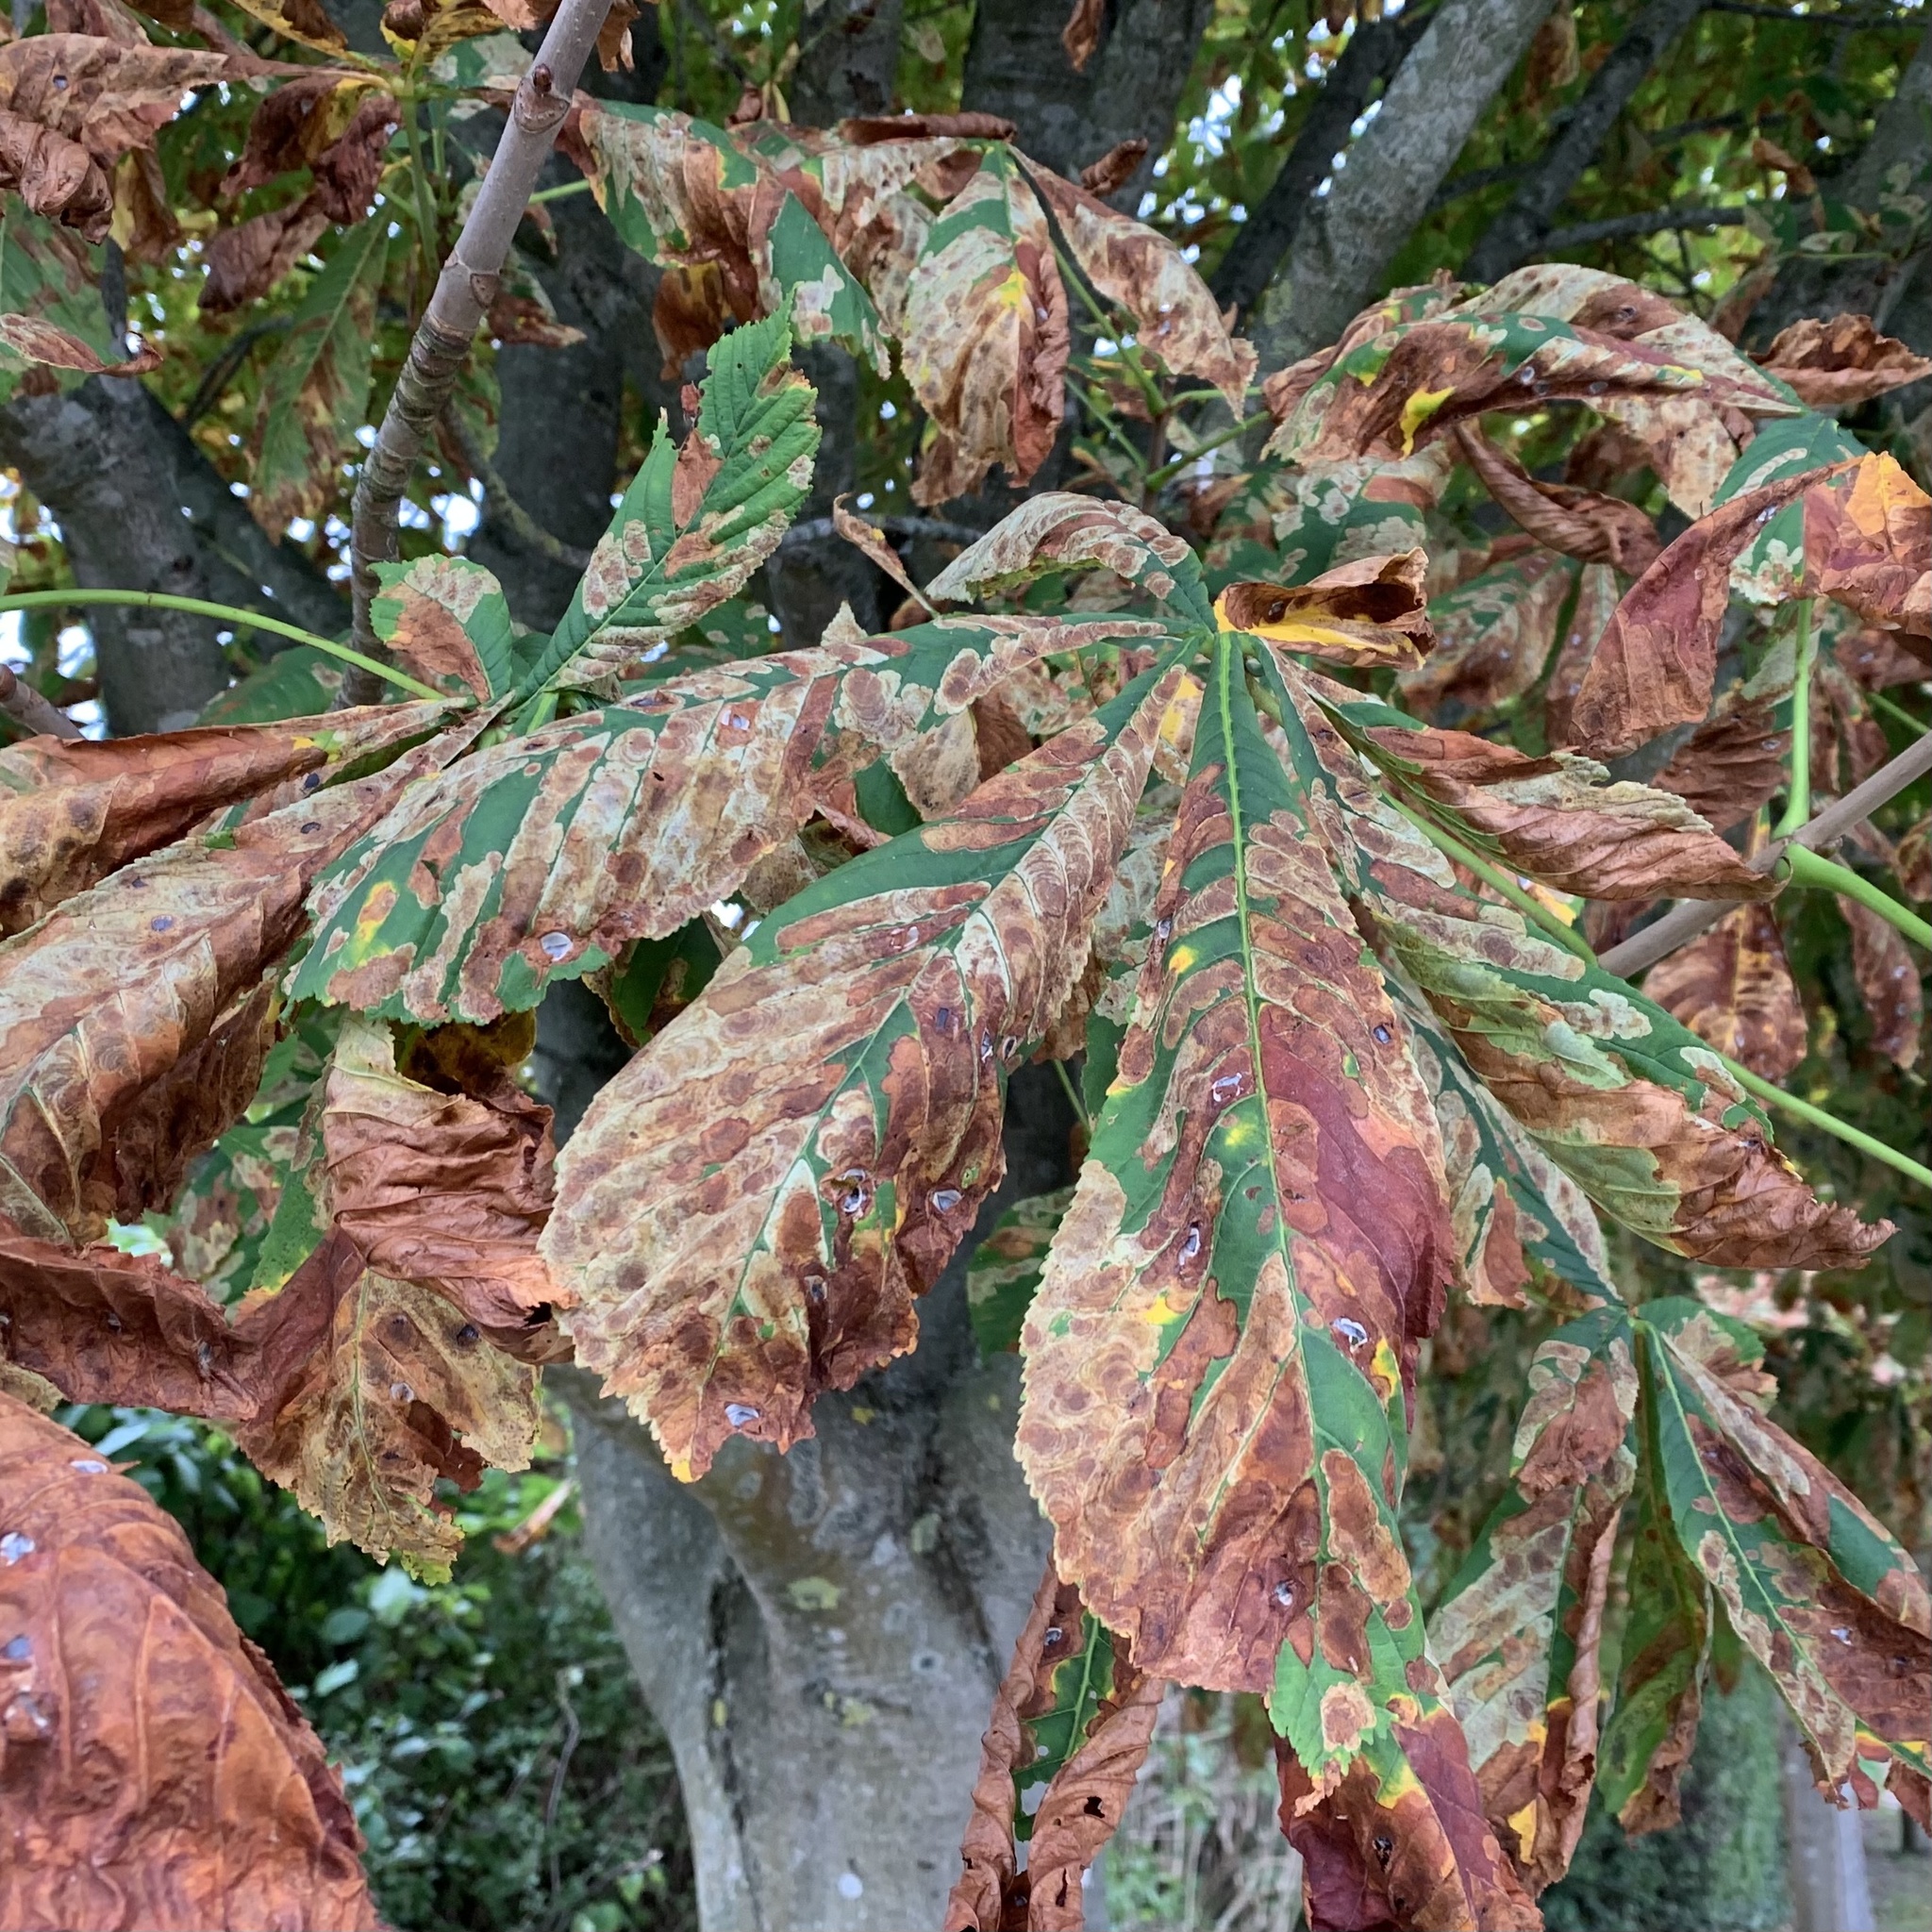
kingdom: Animalia
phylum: Arthropoda
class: Insecta
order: Lepidoptera
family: Gracillariidae
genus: Cameraria
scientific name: Cameraria ohridella
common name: Horse-chestnut leaf-miner
